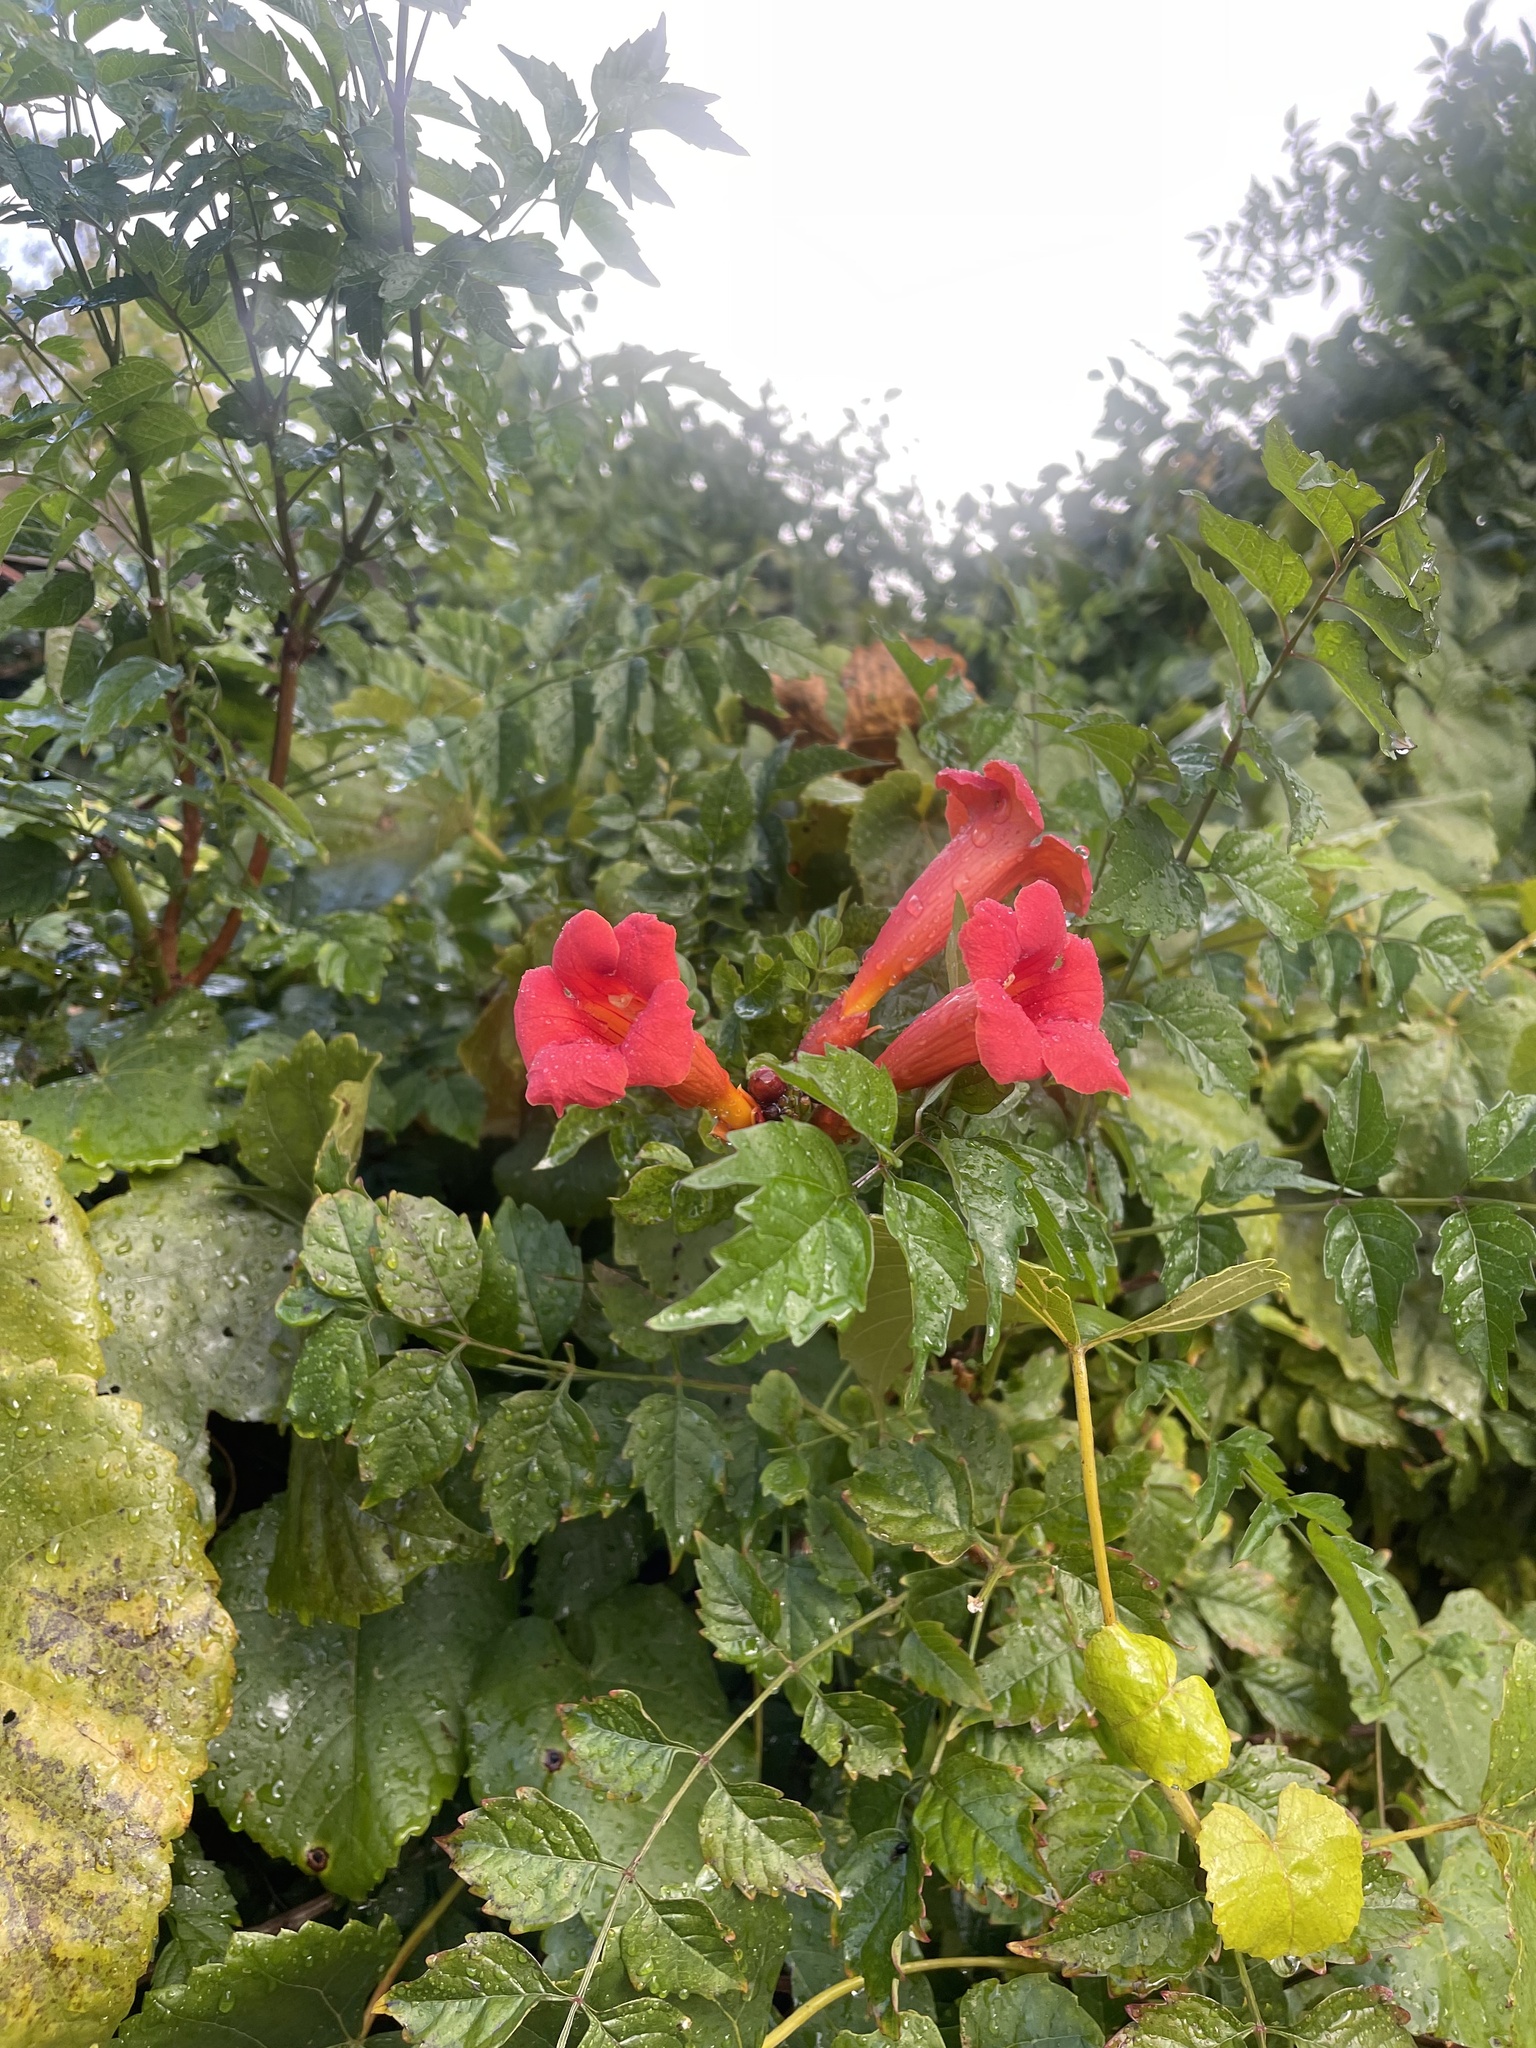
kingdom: Plantae
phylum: Tracheophyta
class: Magnoliopsida
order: Lamiales
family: Bignoniaceae
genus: Campsis
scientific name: Campsis radicans
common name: Trumpet-creeper
